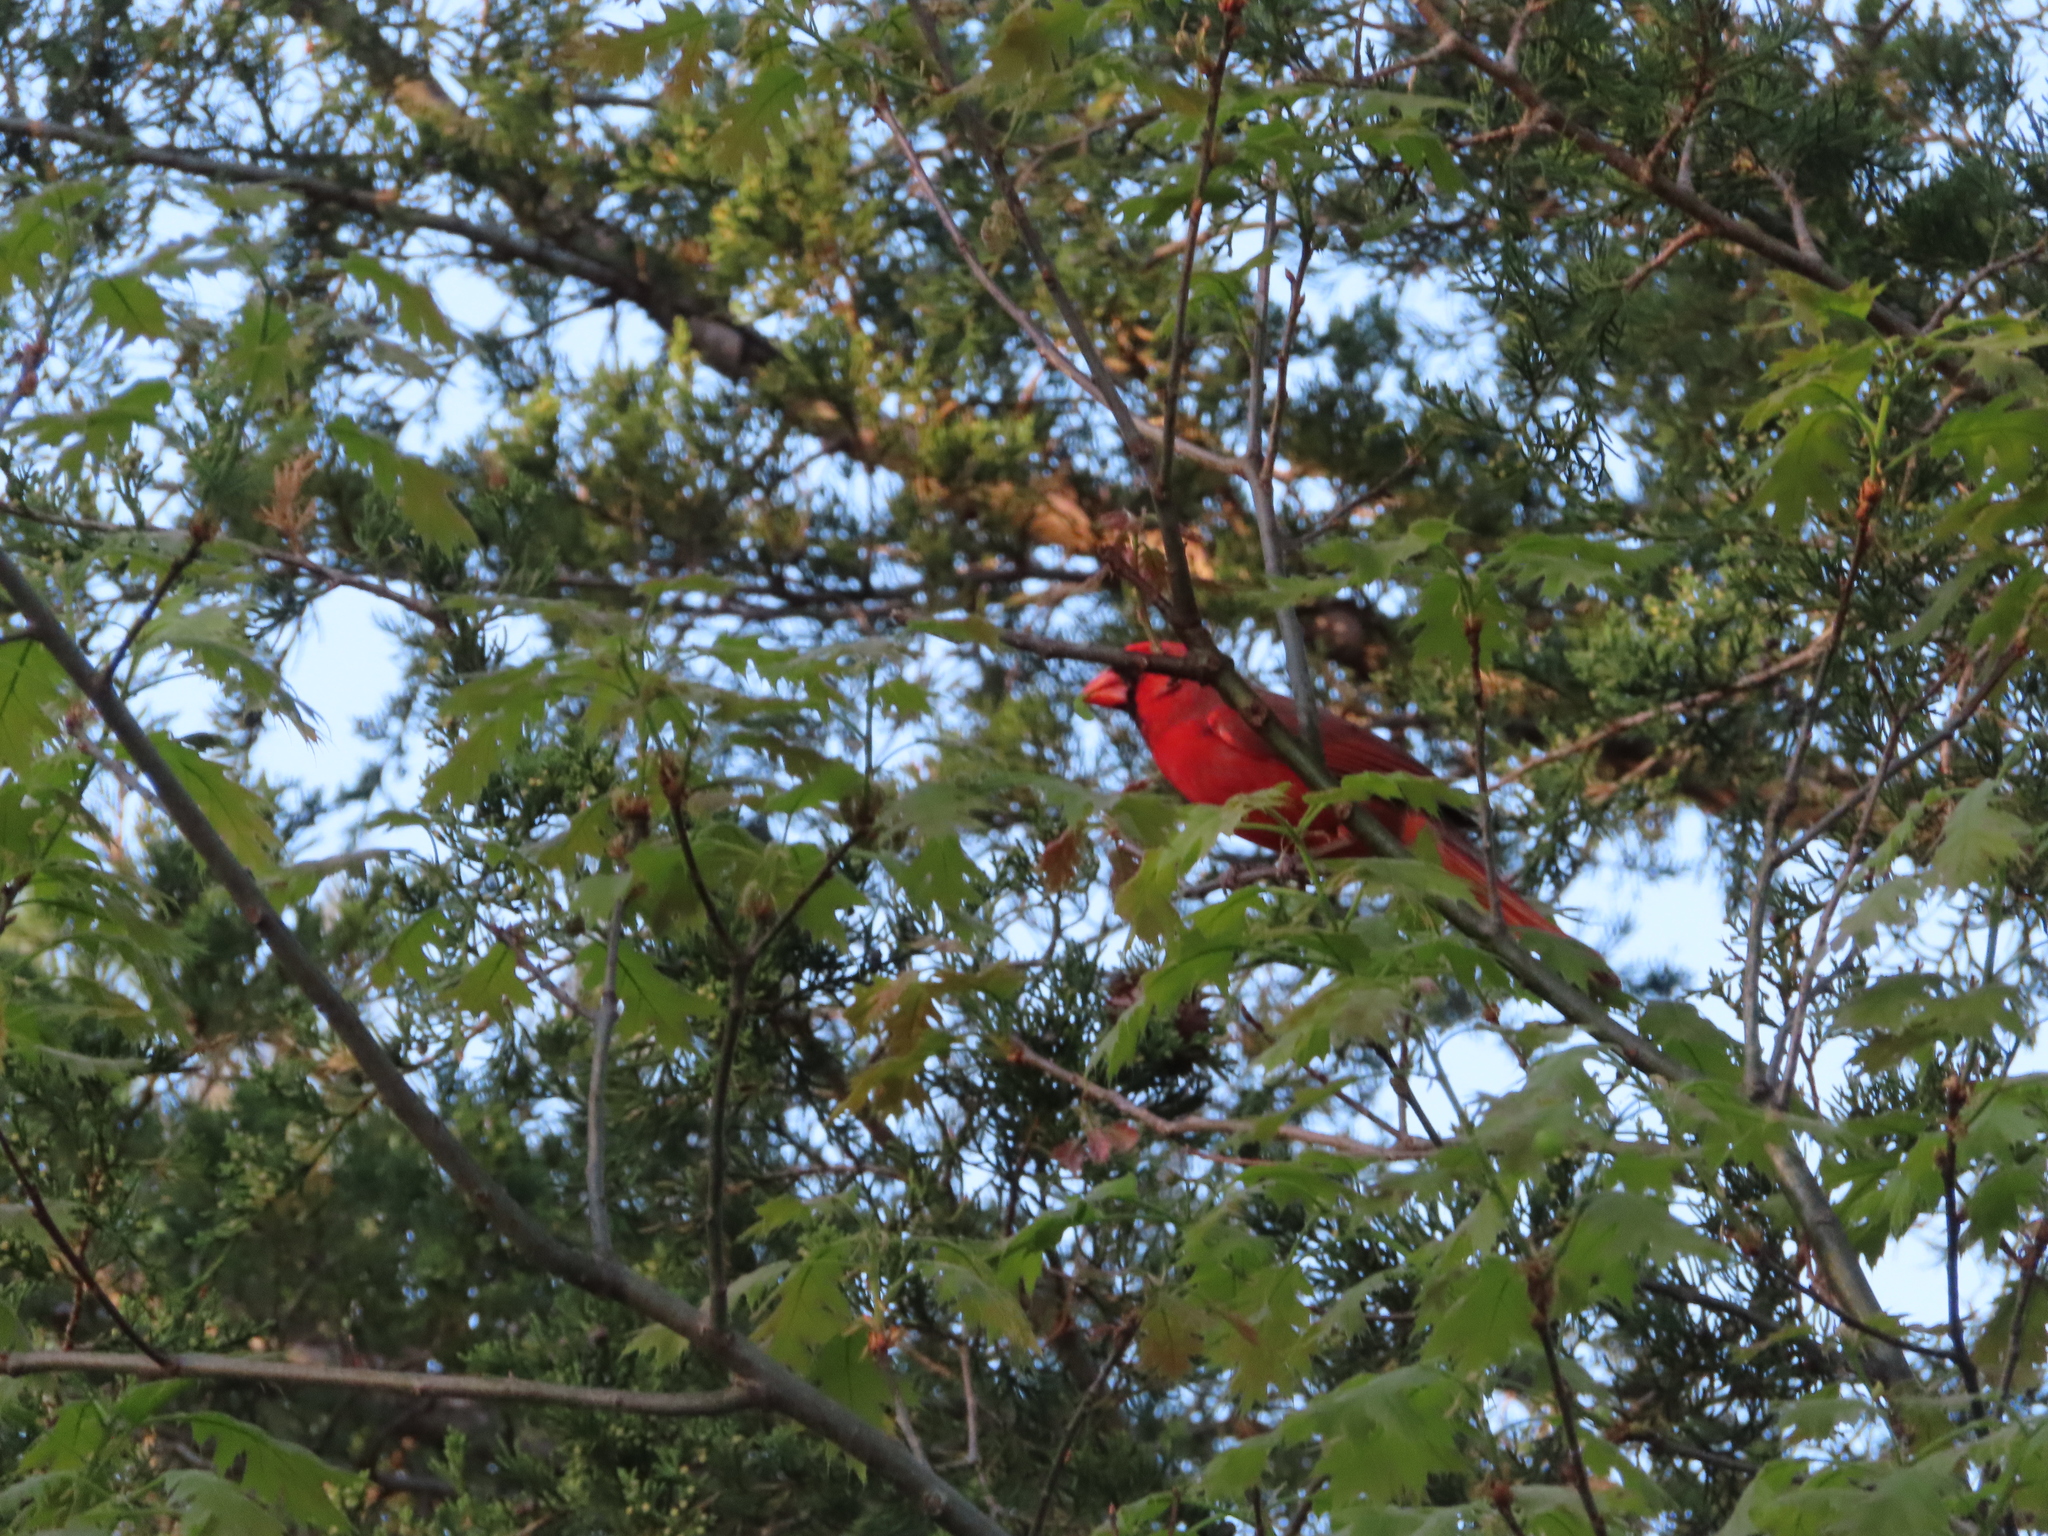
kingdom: Animalia
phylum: Chordata
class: Aves
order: Passeriformes
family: Cardinalidae
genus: Cardinalis
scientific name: Cardinalis cardinalis
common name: Northern cardinal
